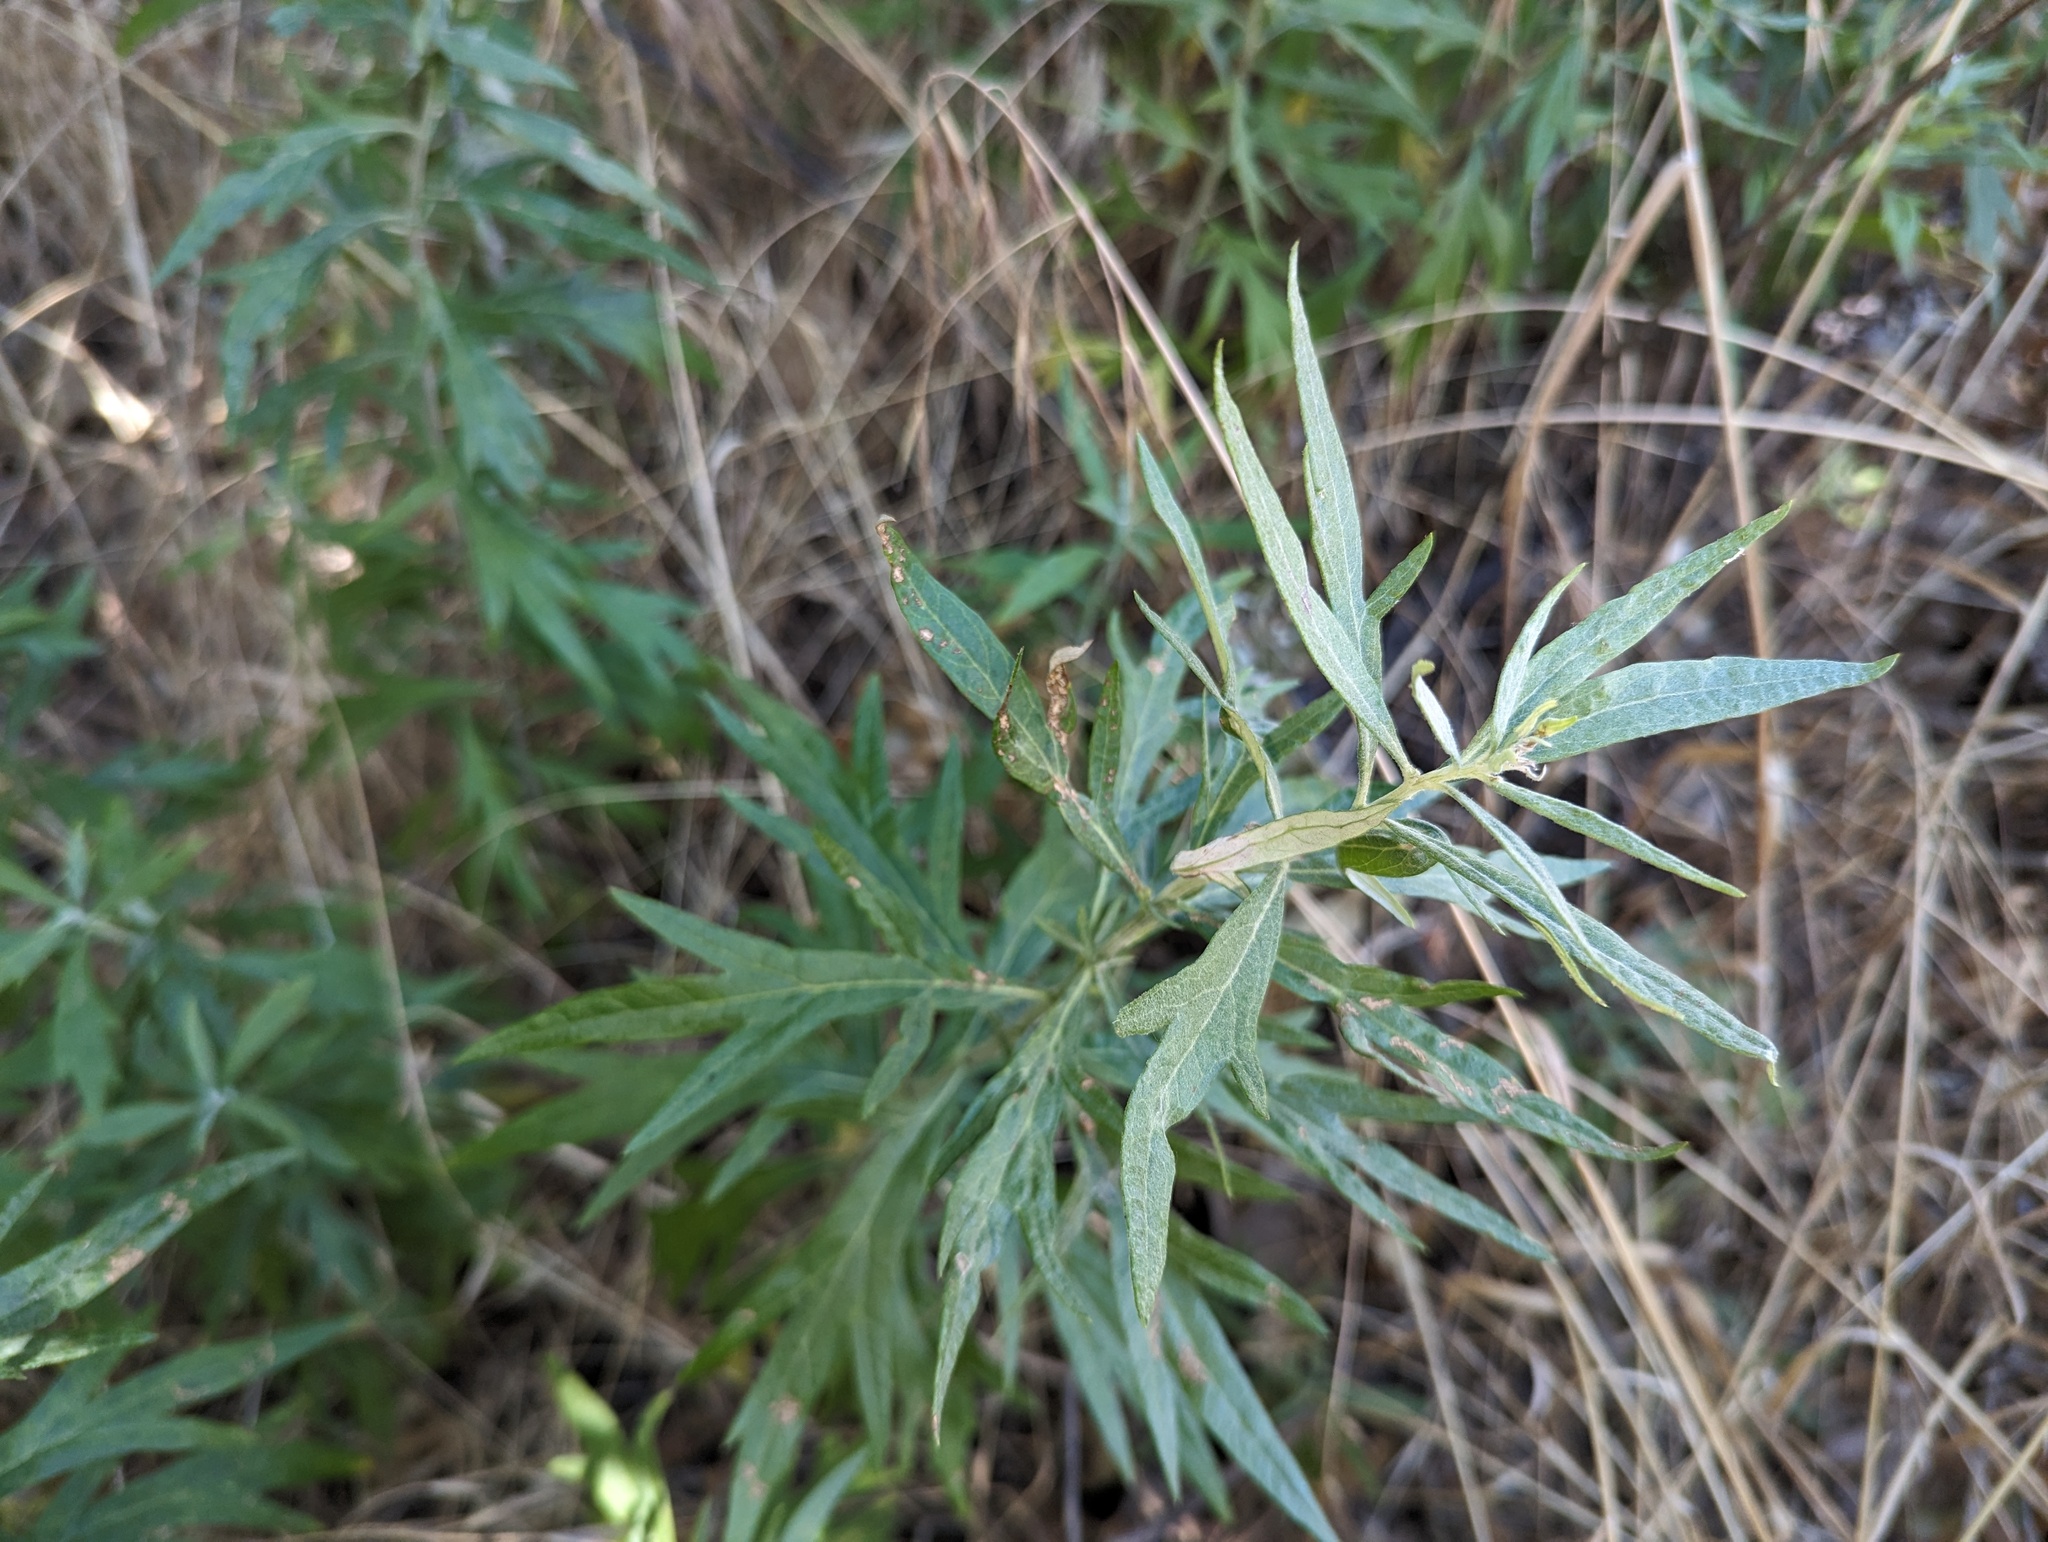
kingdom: Plantae
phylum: Tracheophyta
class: Magnoliopsida
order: Asterales
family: Asteraceae
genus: Artemisia
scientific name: Artemisia douglasiana
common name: Northwest mugwort
